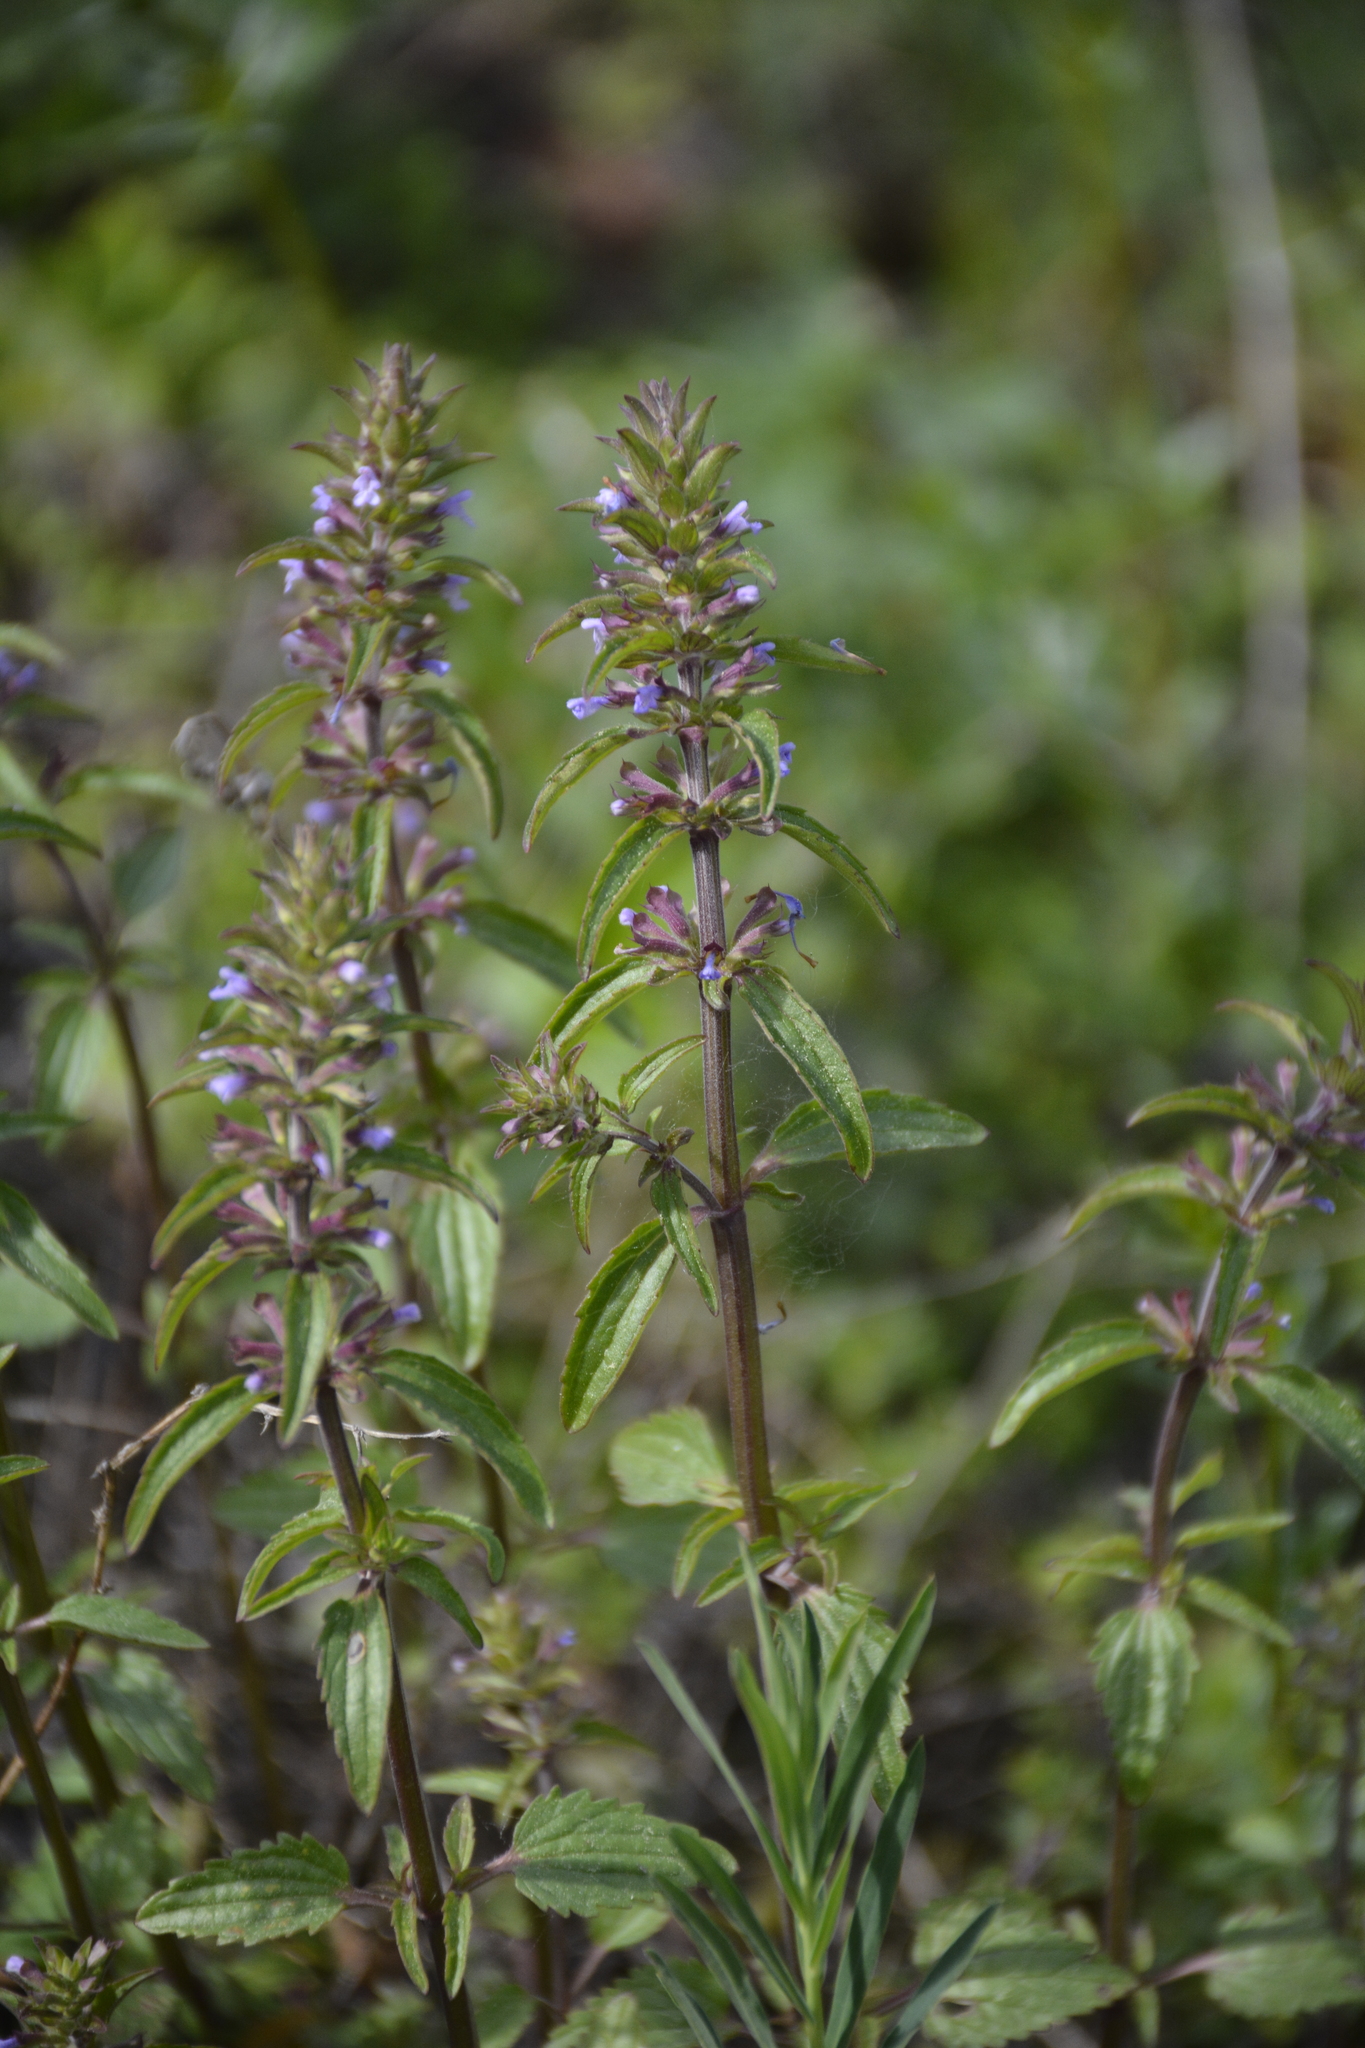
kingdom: Plantae
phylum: Tracheophyta
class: Magnoliopsida
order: Lamiales
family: Lamiaceae
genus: Dracocephalum
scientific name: Dracocephalum thymiflorum
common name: Thymeleaf dragonhead
